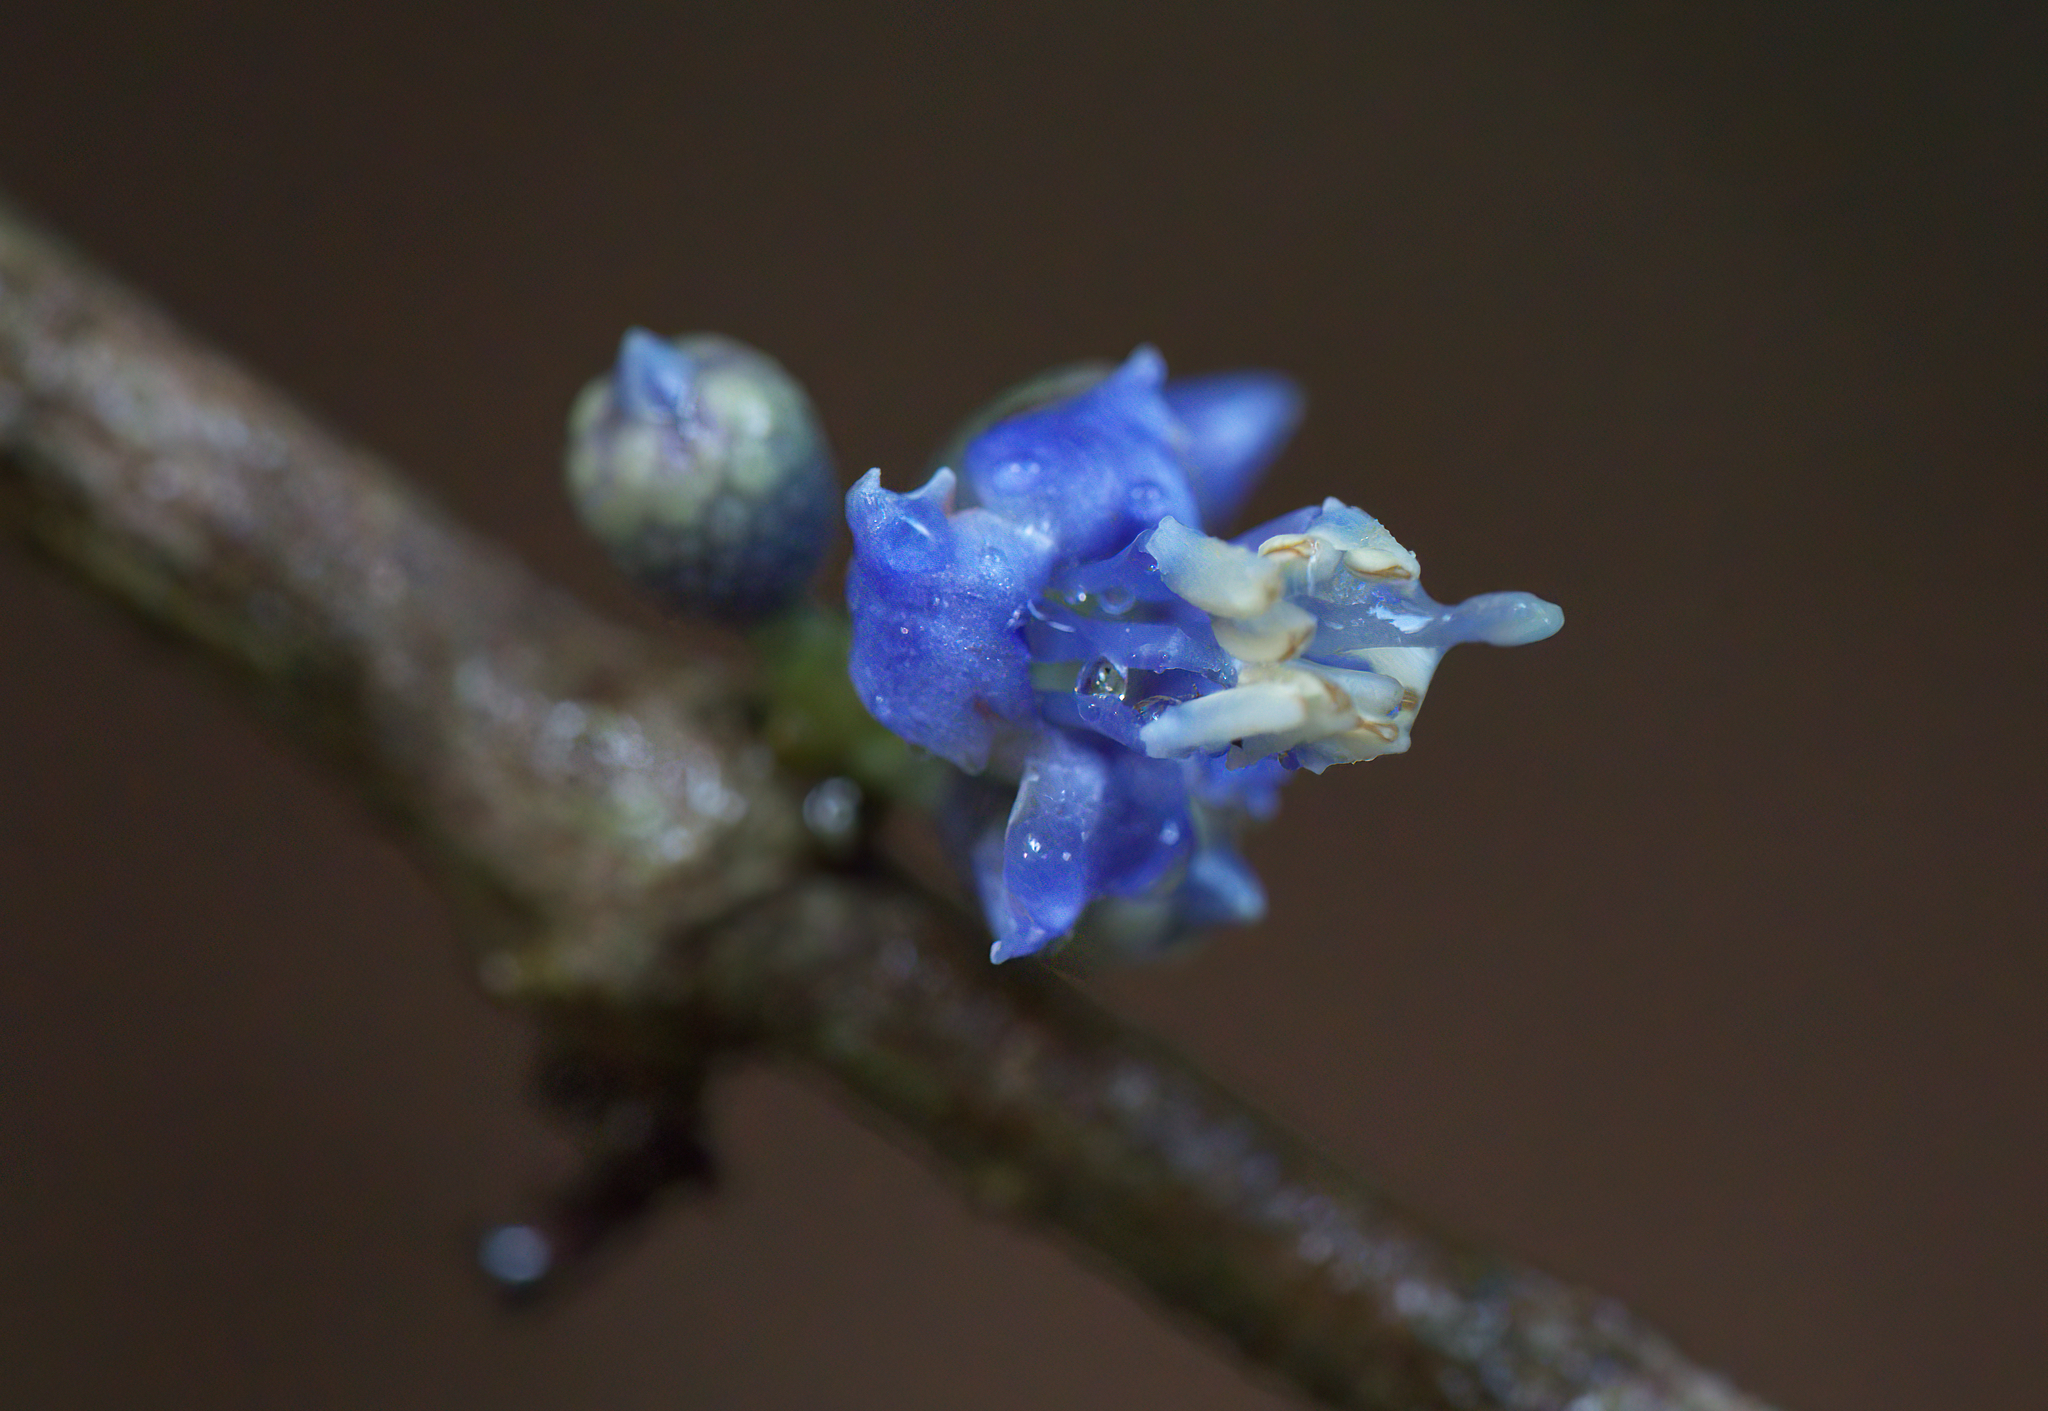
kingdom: Plantae
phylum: Tracheophyta
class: Magnoliopsida
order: Myrtales
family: Melastomataceae
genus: Pternandra
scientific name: Pternandra coerulescens
